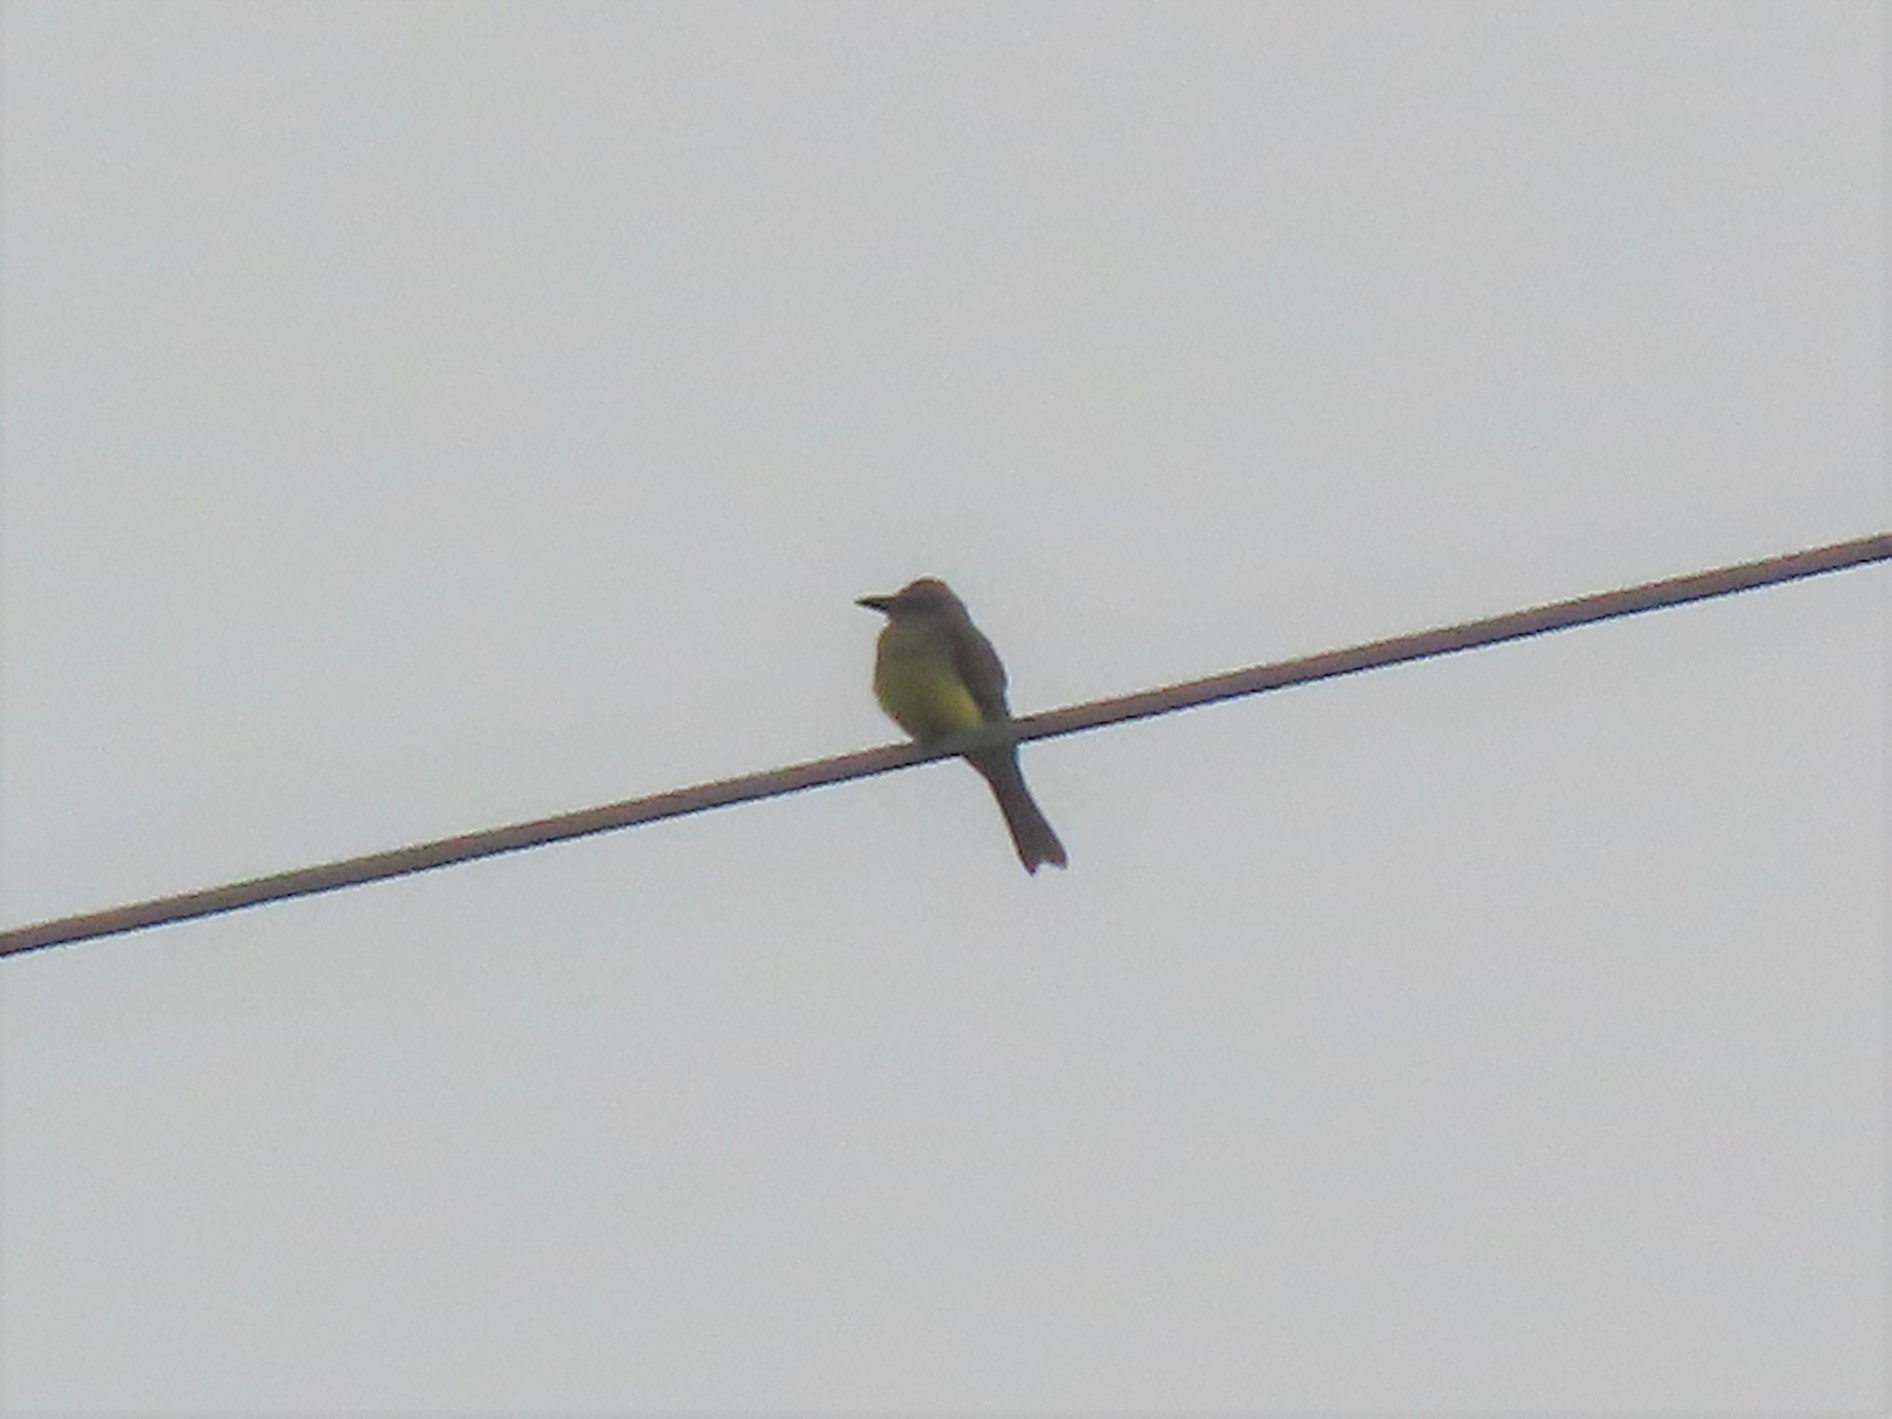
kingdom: Animalia
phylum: Chordata
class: Aves
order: Passeriformes
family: Tyrannidae
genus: Tyrannus
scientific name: Tyrannus melancholicus
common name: Tropical kingbird
